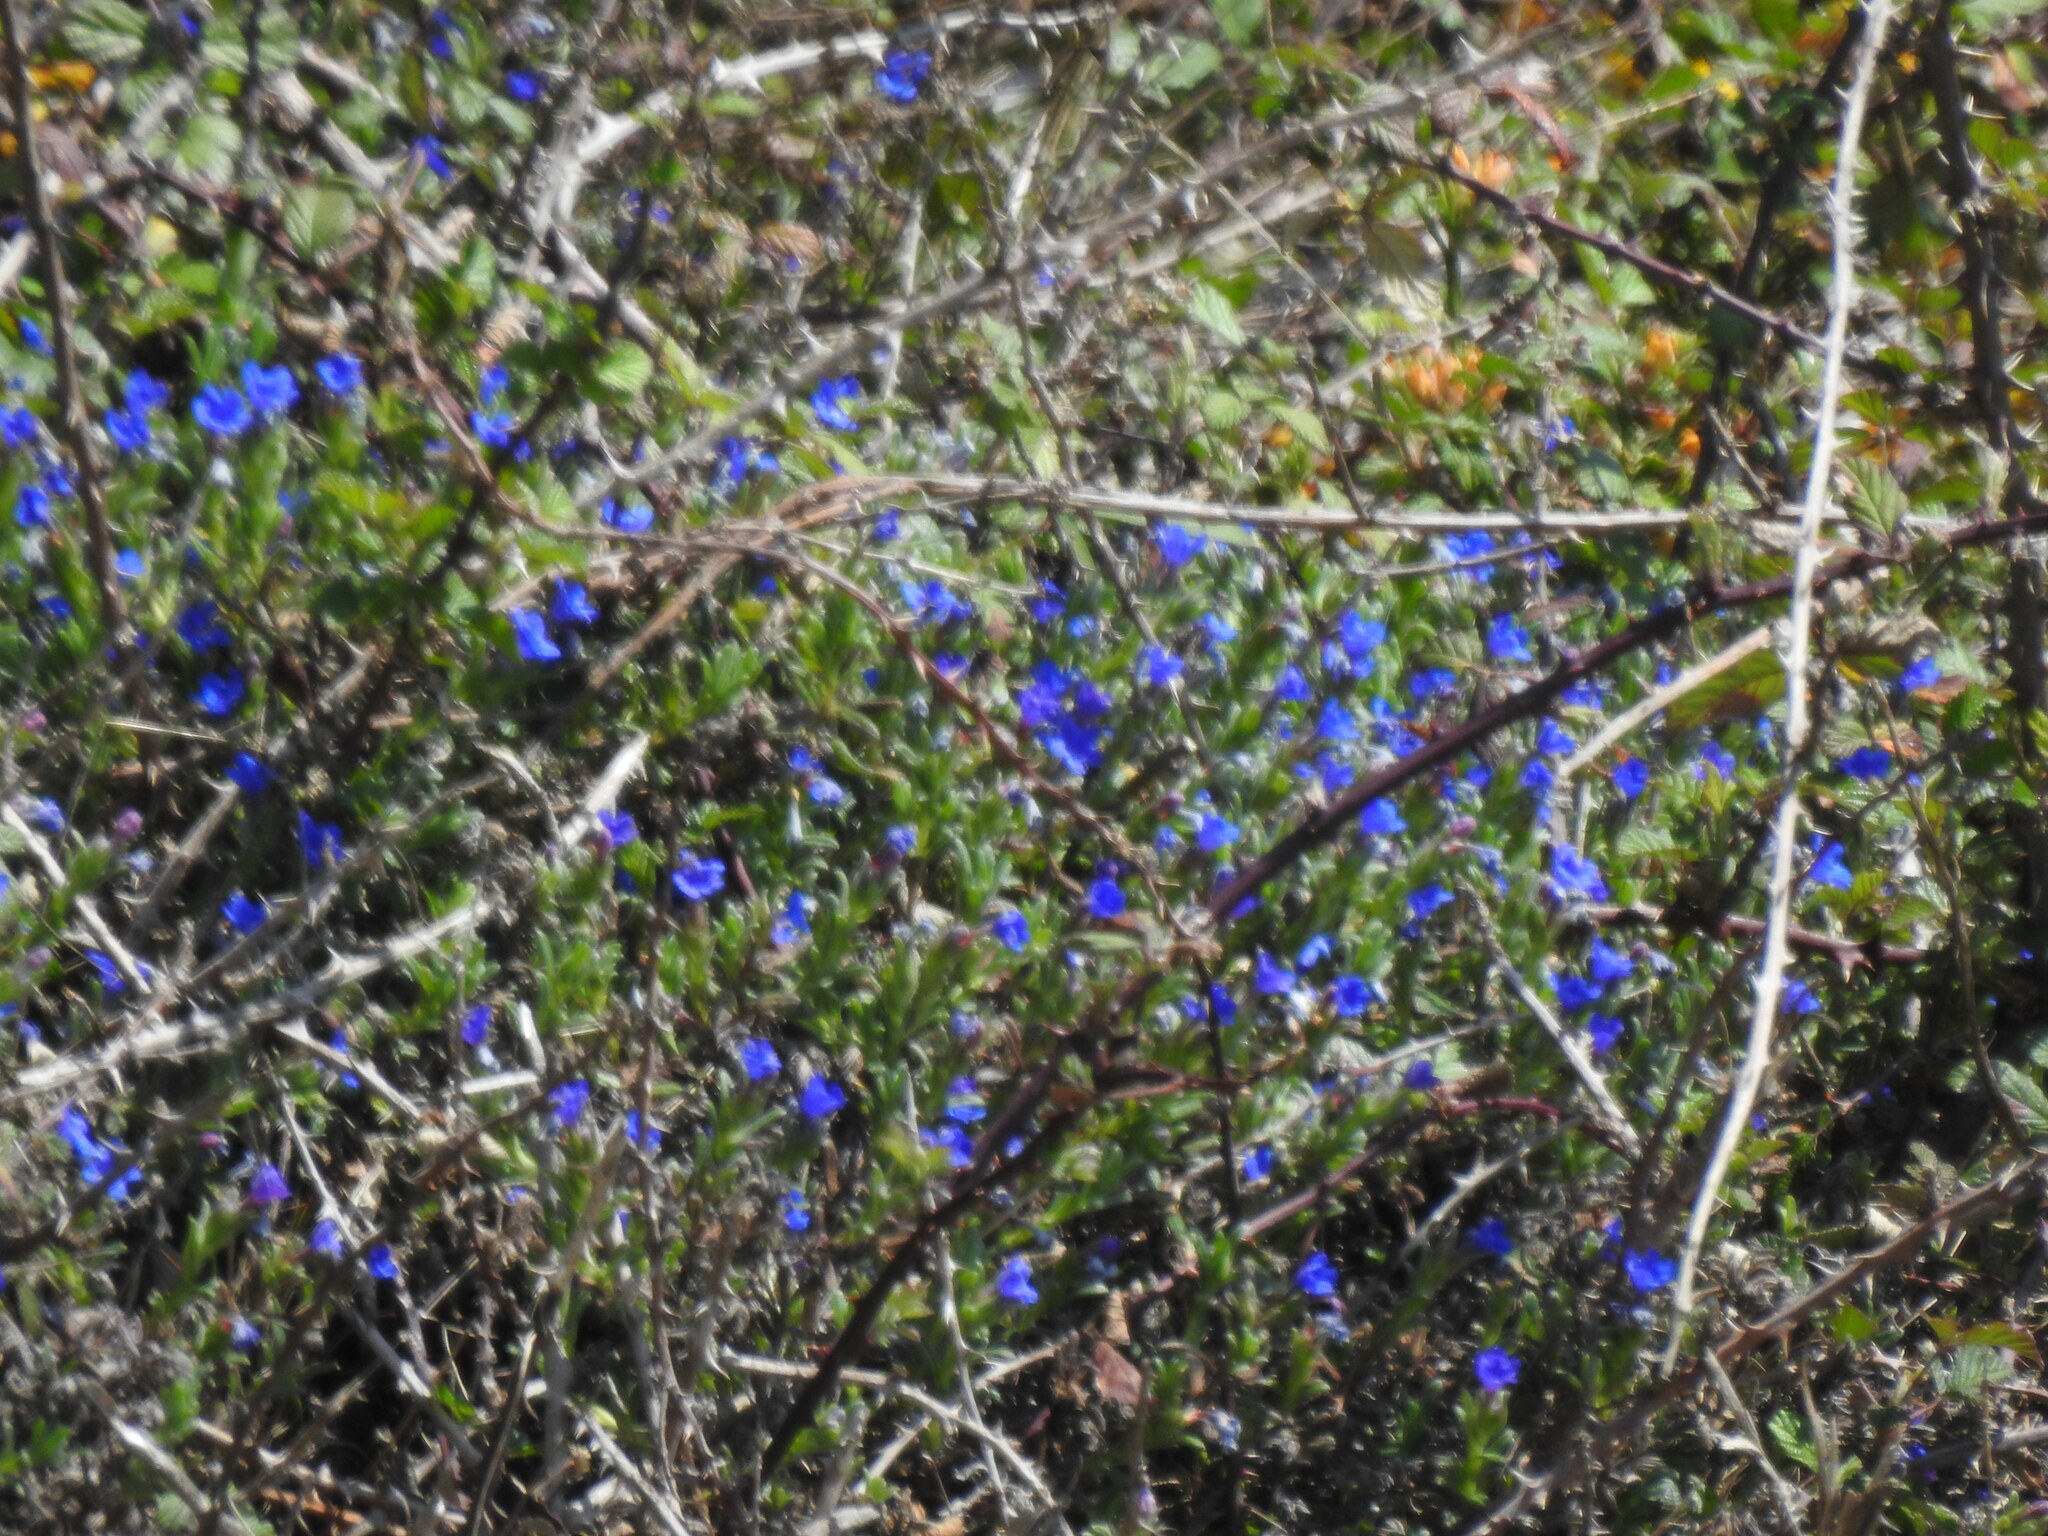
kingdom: Plantae
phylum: Tracheophyta
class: Magnoliopsida
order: Boraginales
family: Boraginaceae
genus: Glandora
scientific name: Glandora prostrata
